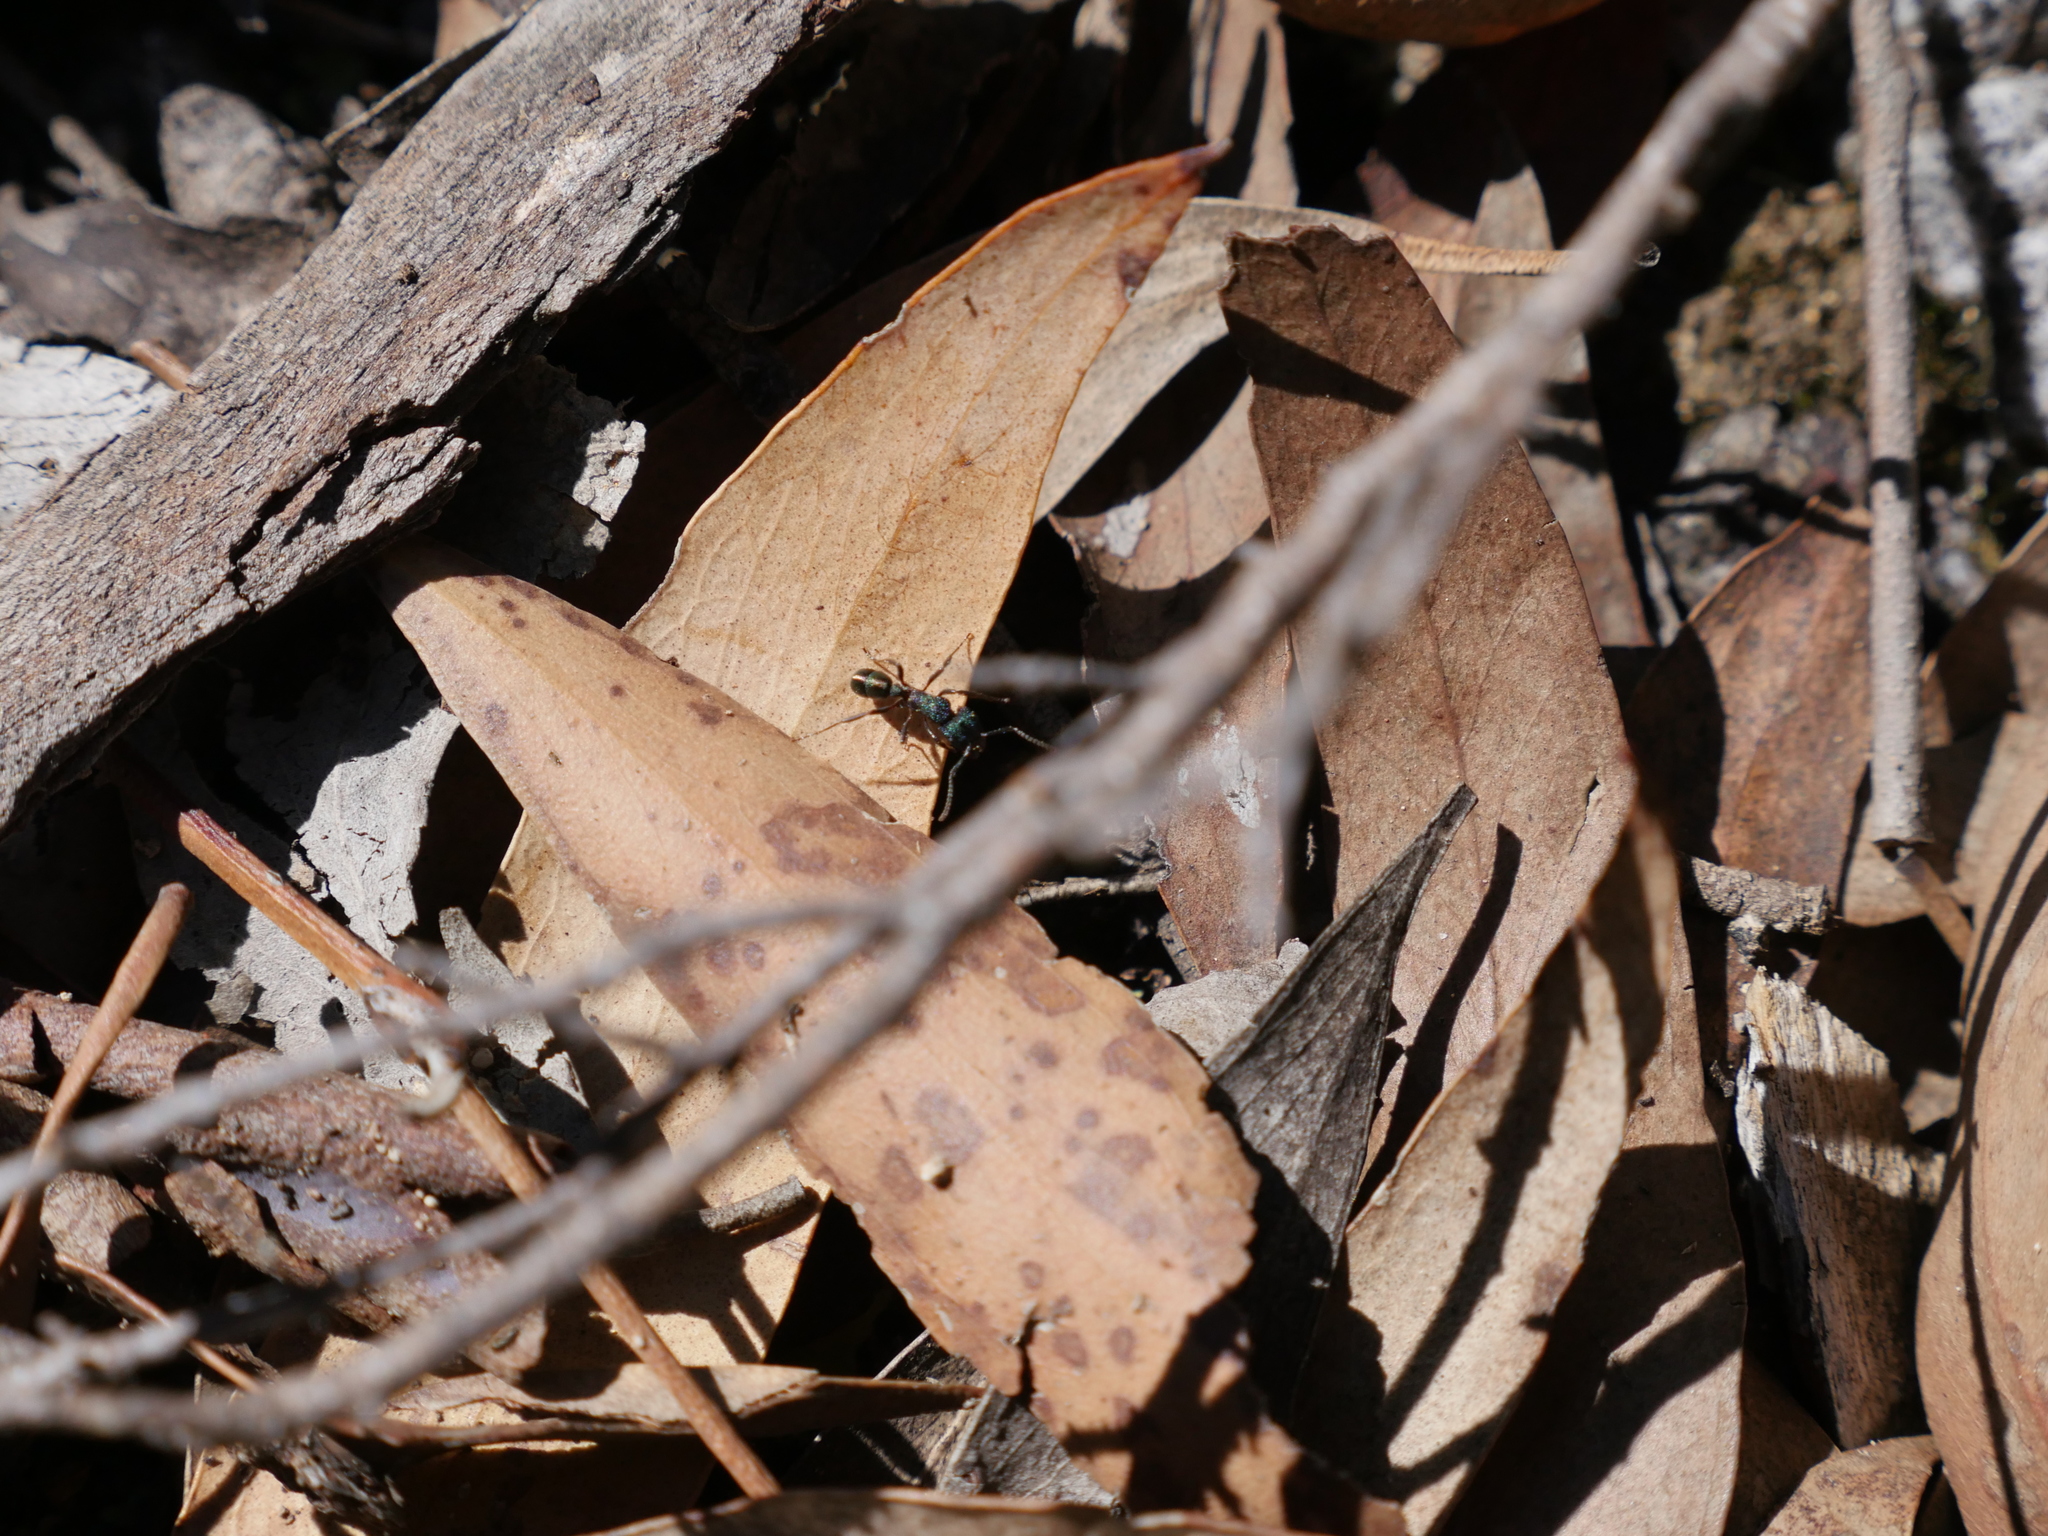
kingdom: Animalia
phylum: Arthropoda
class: Insecta
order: Hymenoptera
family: Formicidae
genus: Rhytidoponera
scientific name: Rhytidoponera metallica
